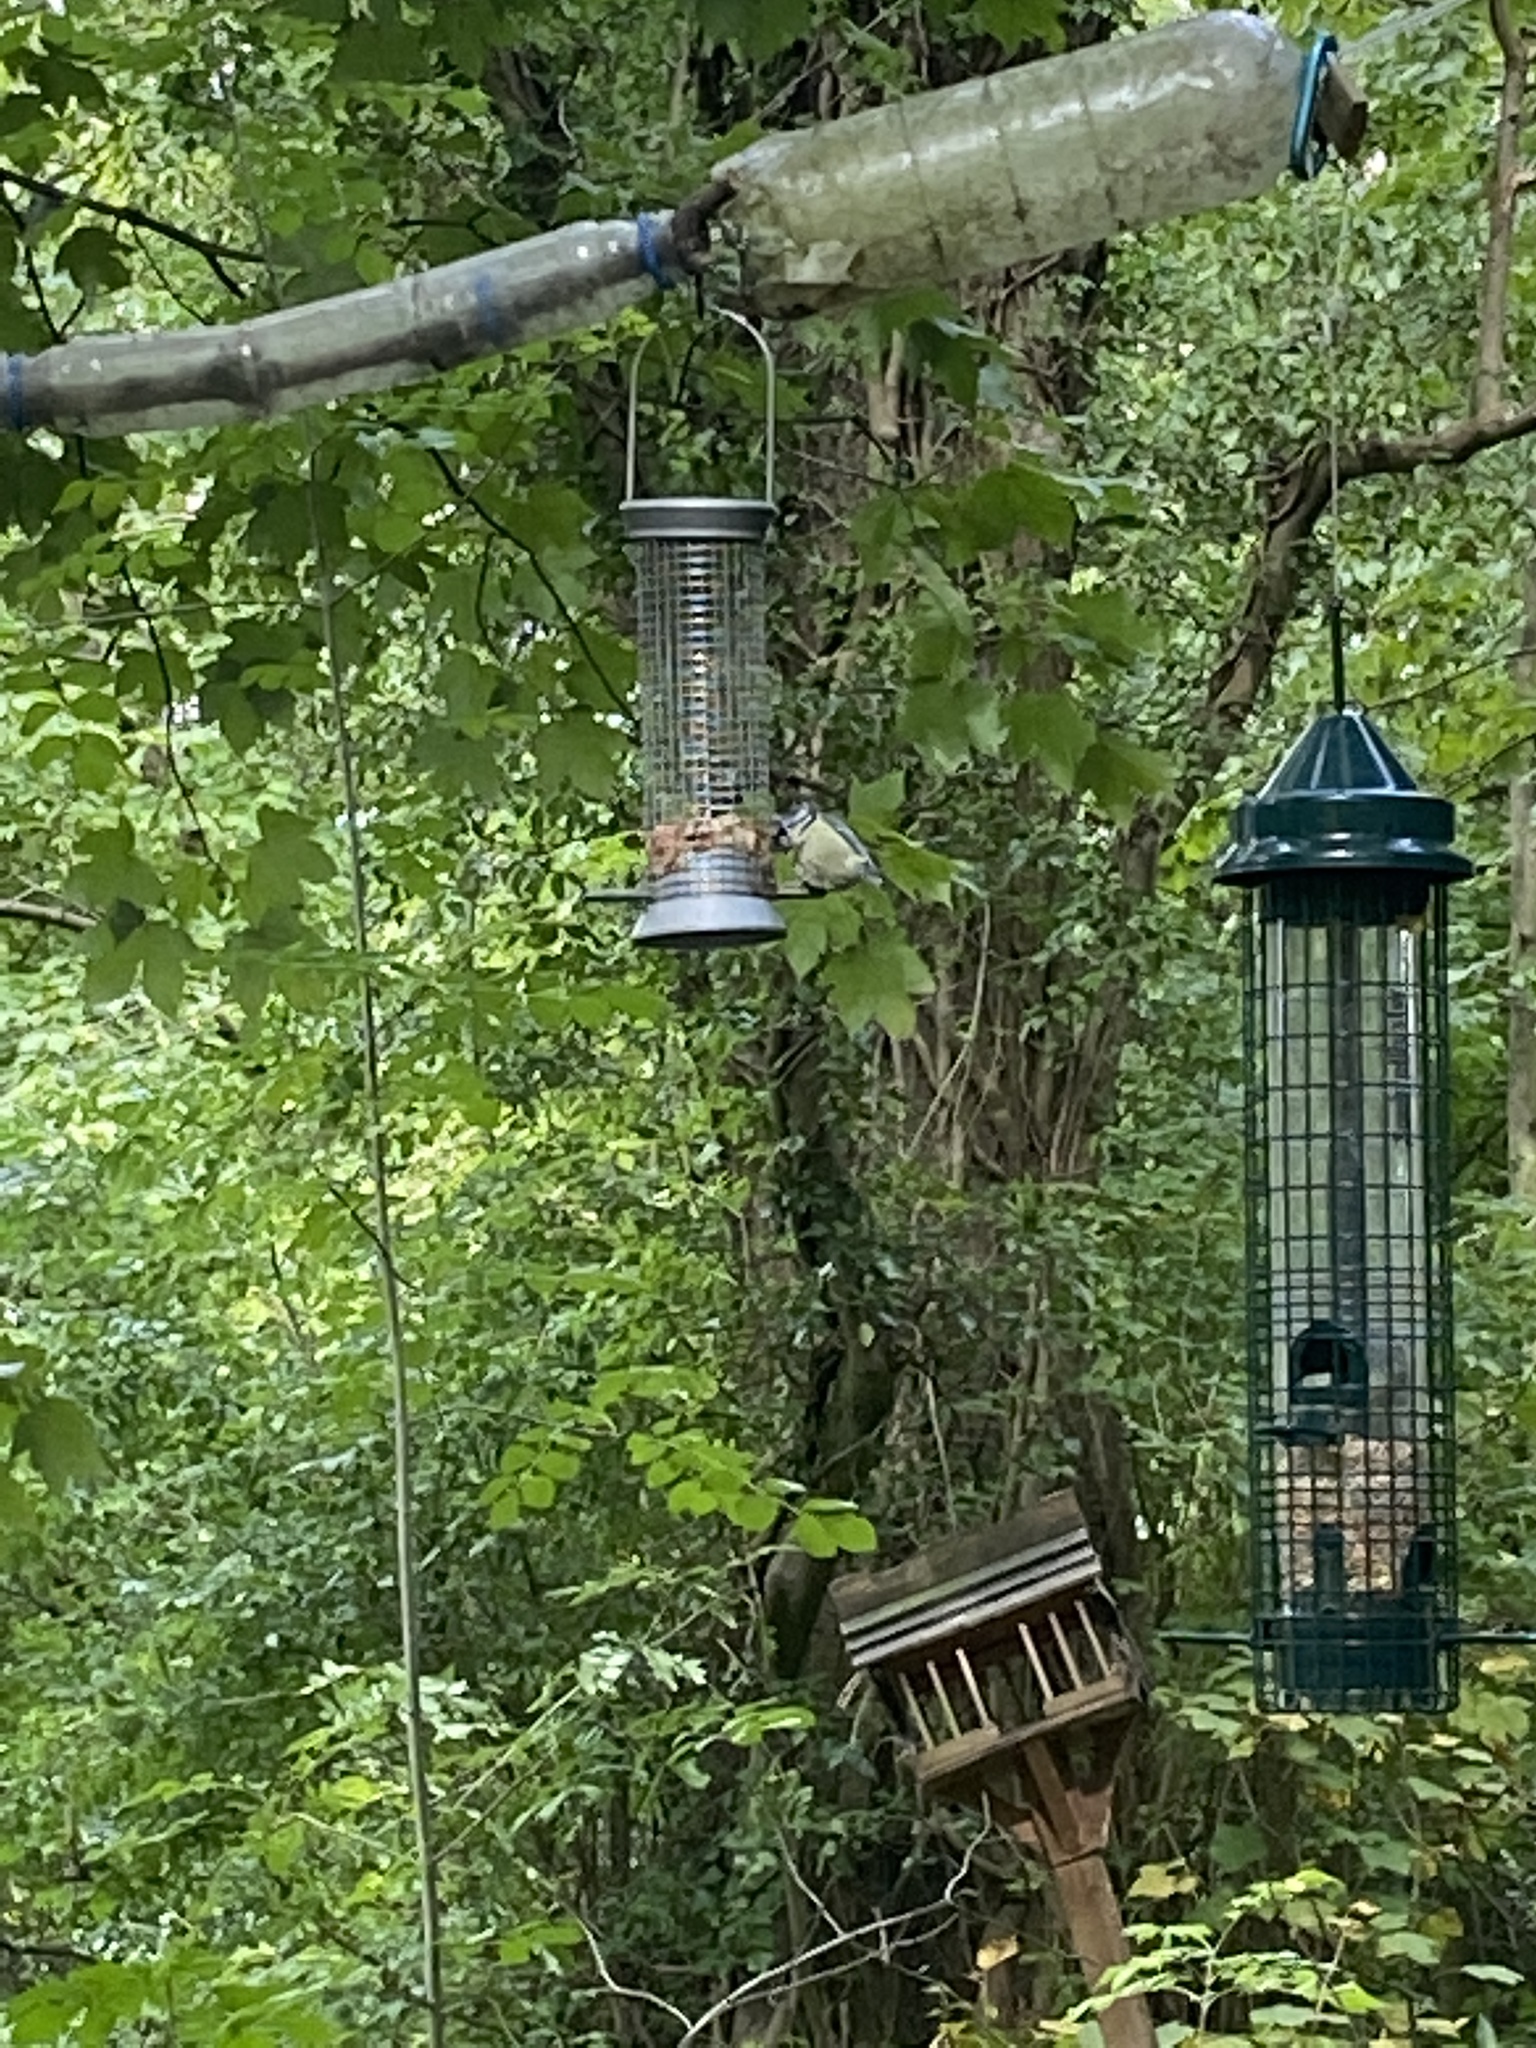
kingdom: Animalia
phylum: Chordata
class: Aves
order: Passeriformes
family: Paridae
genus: Cyanistes
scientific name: Cyanistes caeruleus
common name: Eurasian blue tit
